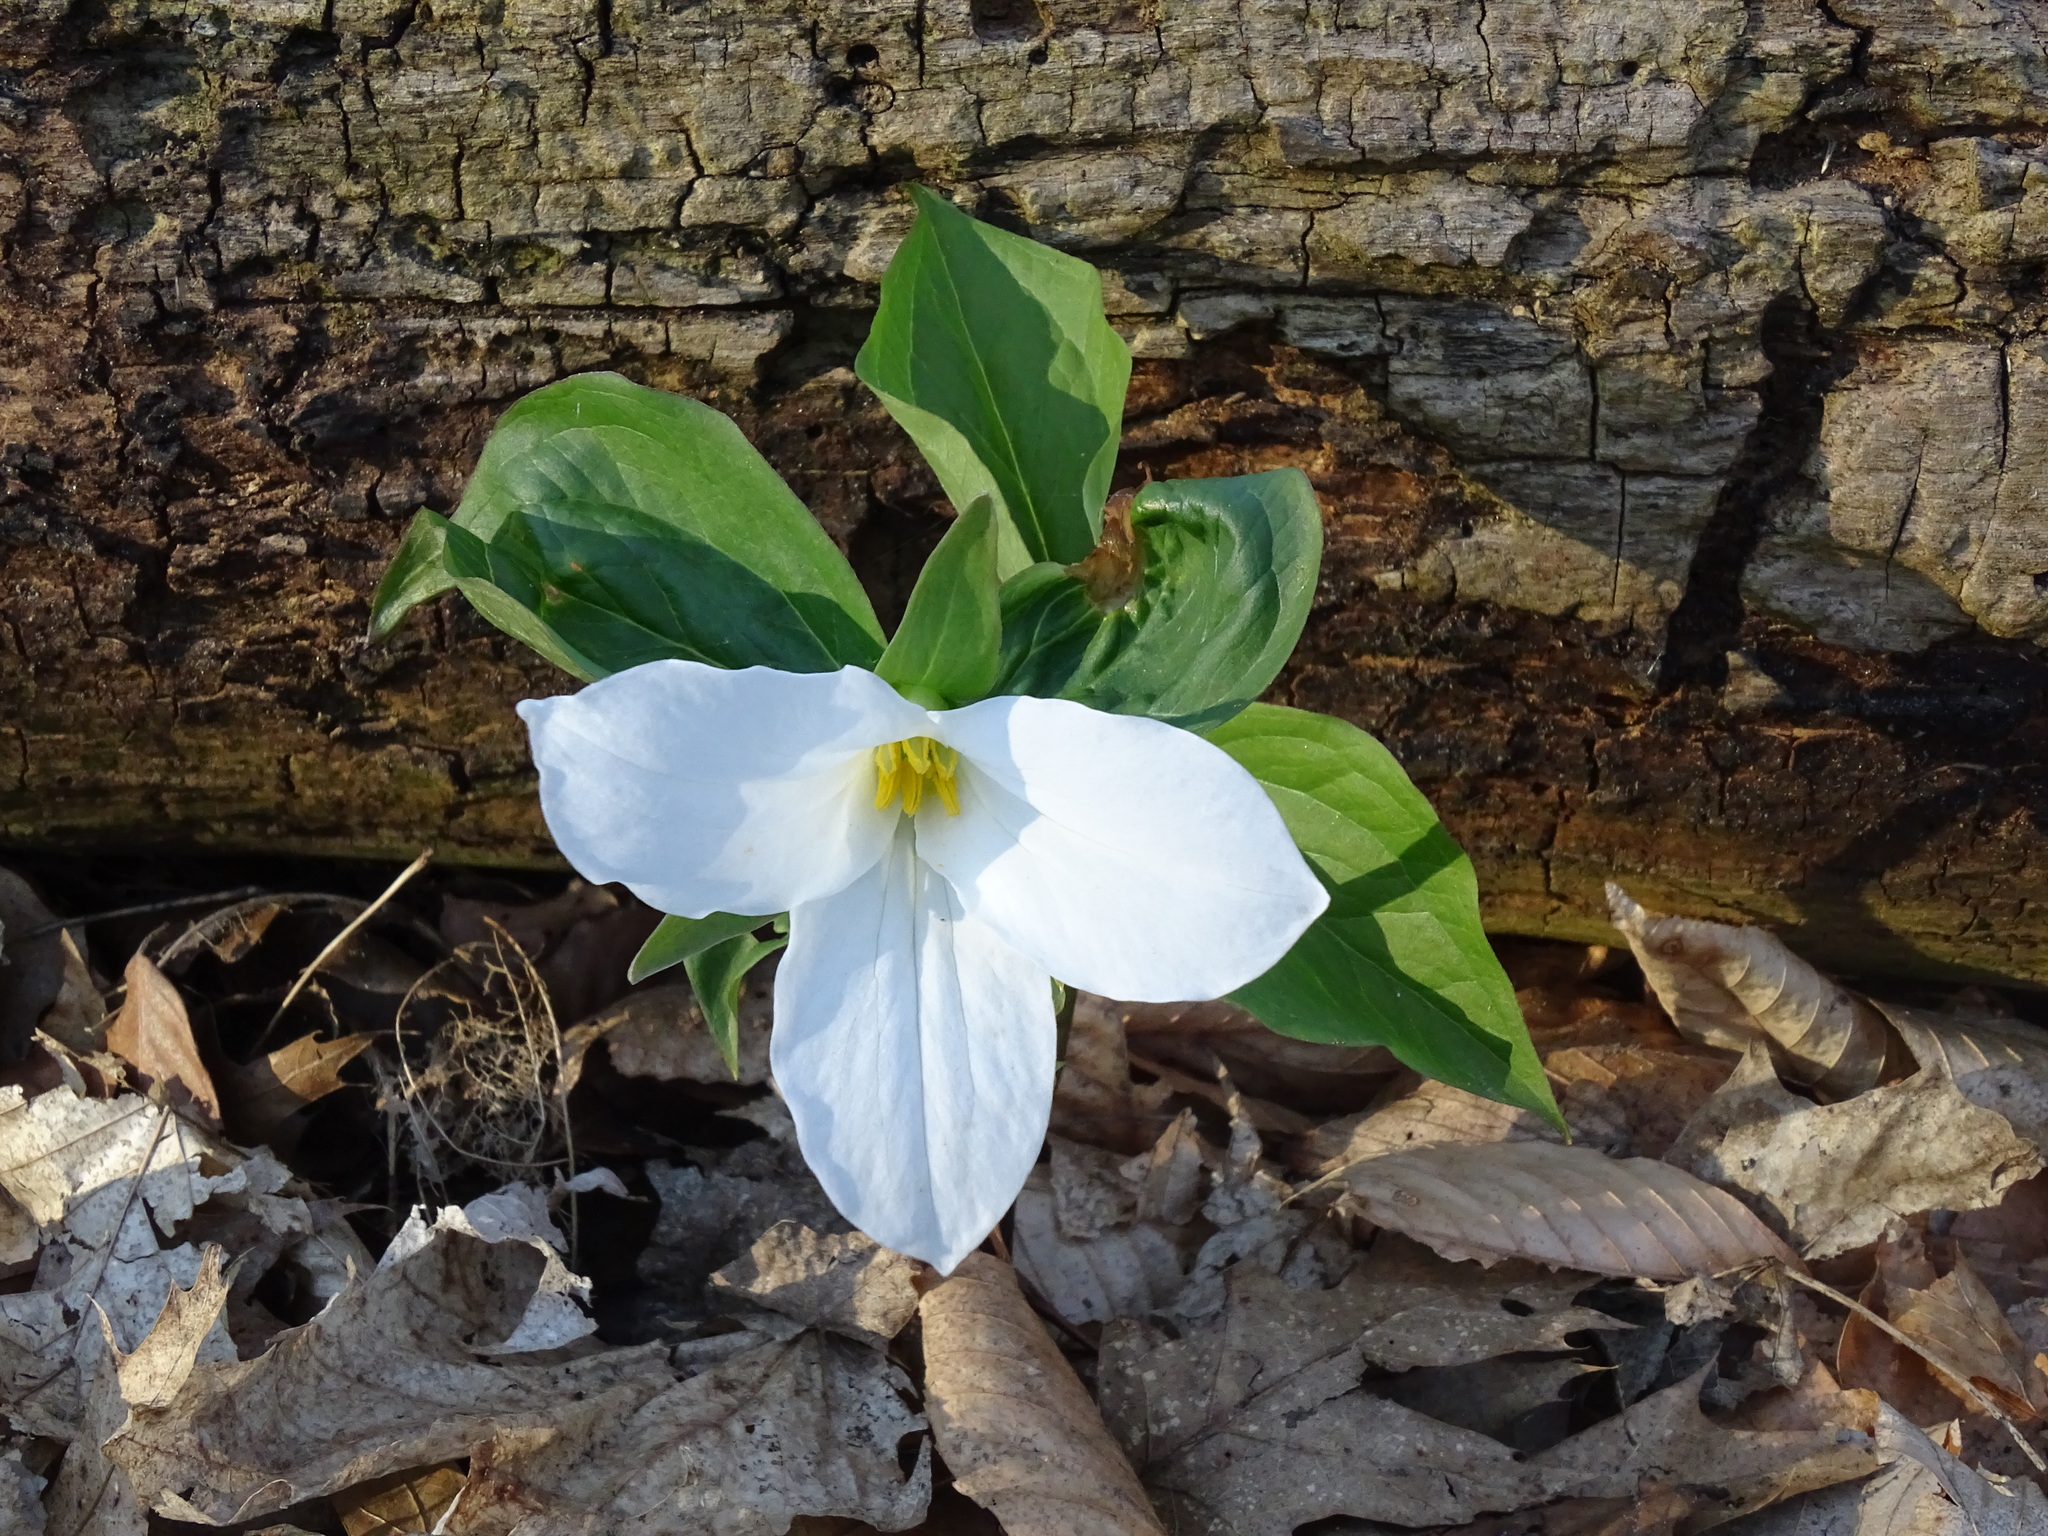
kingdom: Plantae
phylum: Tracheophyta
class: Liliopsida
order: Liliales
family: Melanthiaceae
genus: Trillium
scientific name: Trillium grandiflorum
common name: Great white trillium
